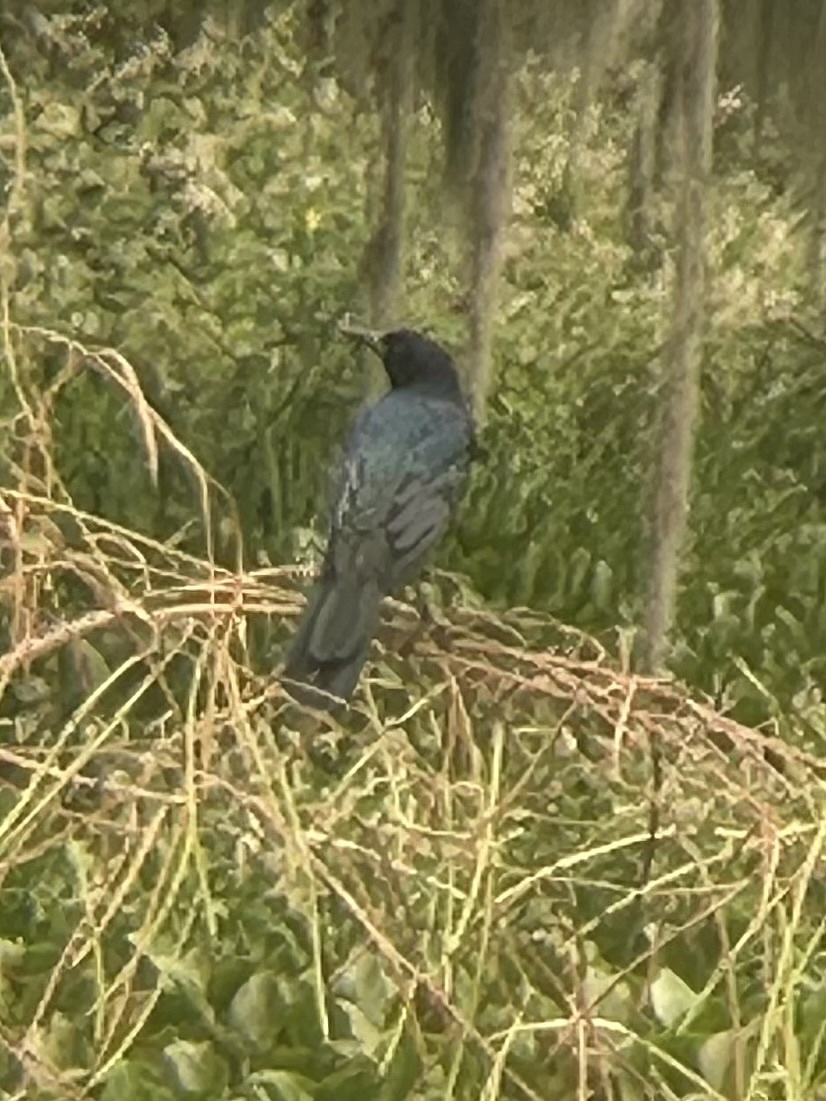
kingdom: Animalia
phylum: Chordata
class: Aves
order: Passeriformes
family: Icteridae
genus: Quiscalus
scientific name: Quiscalus major
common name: Boat-tailed grackle
